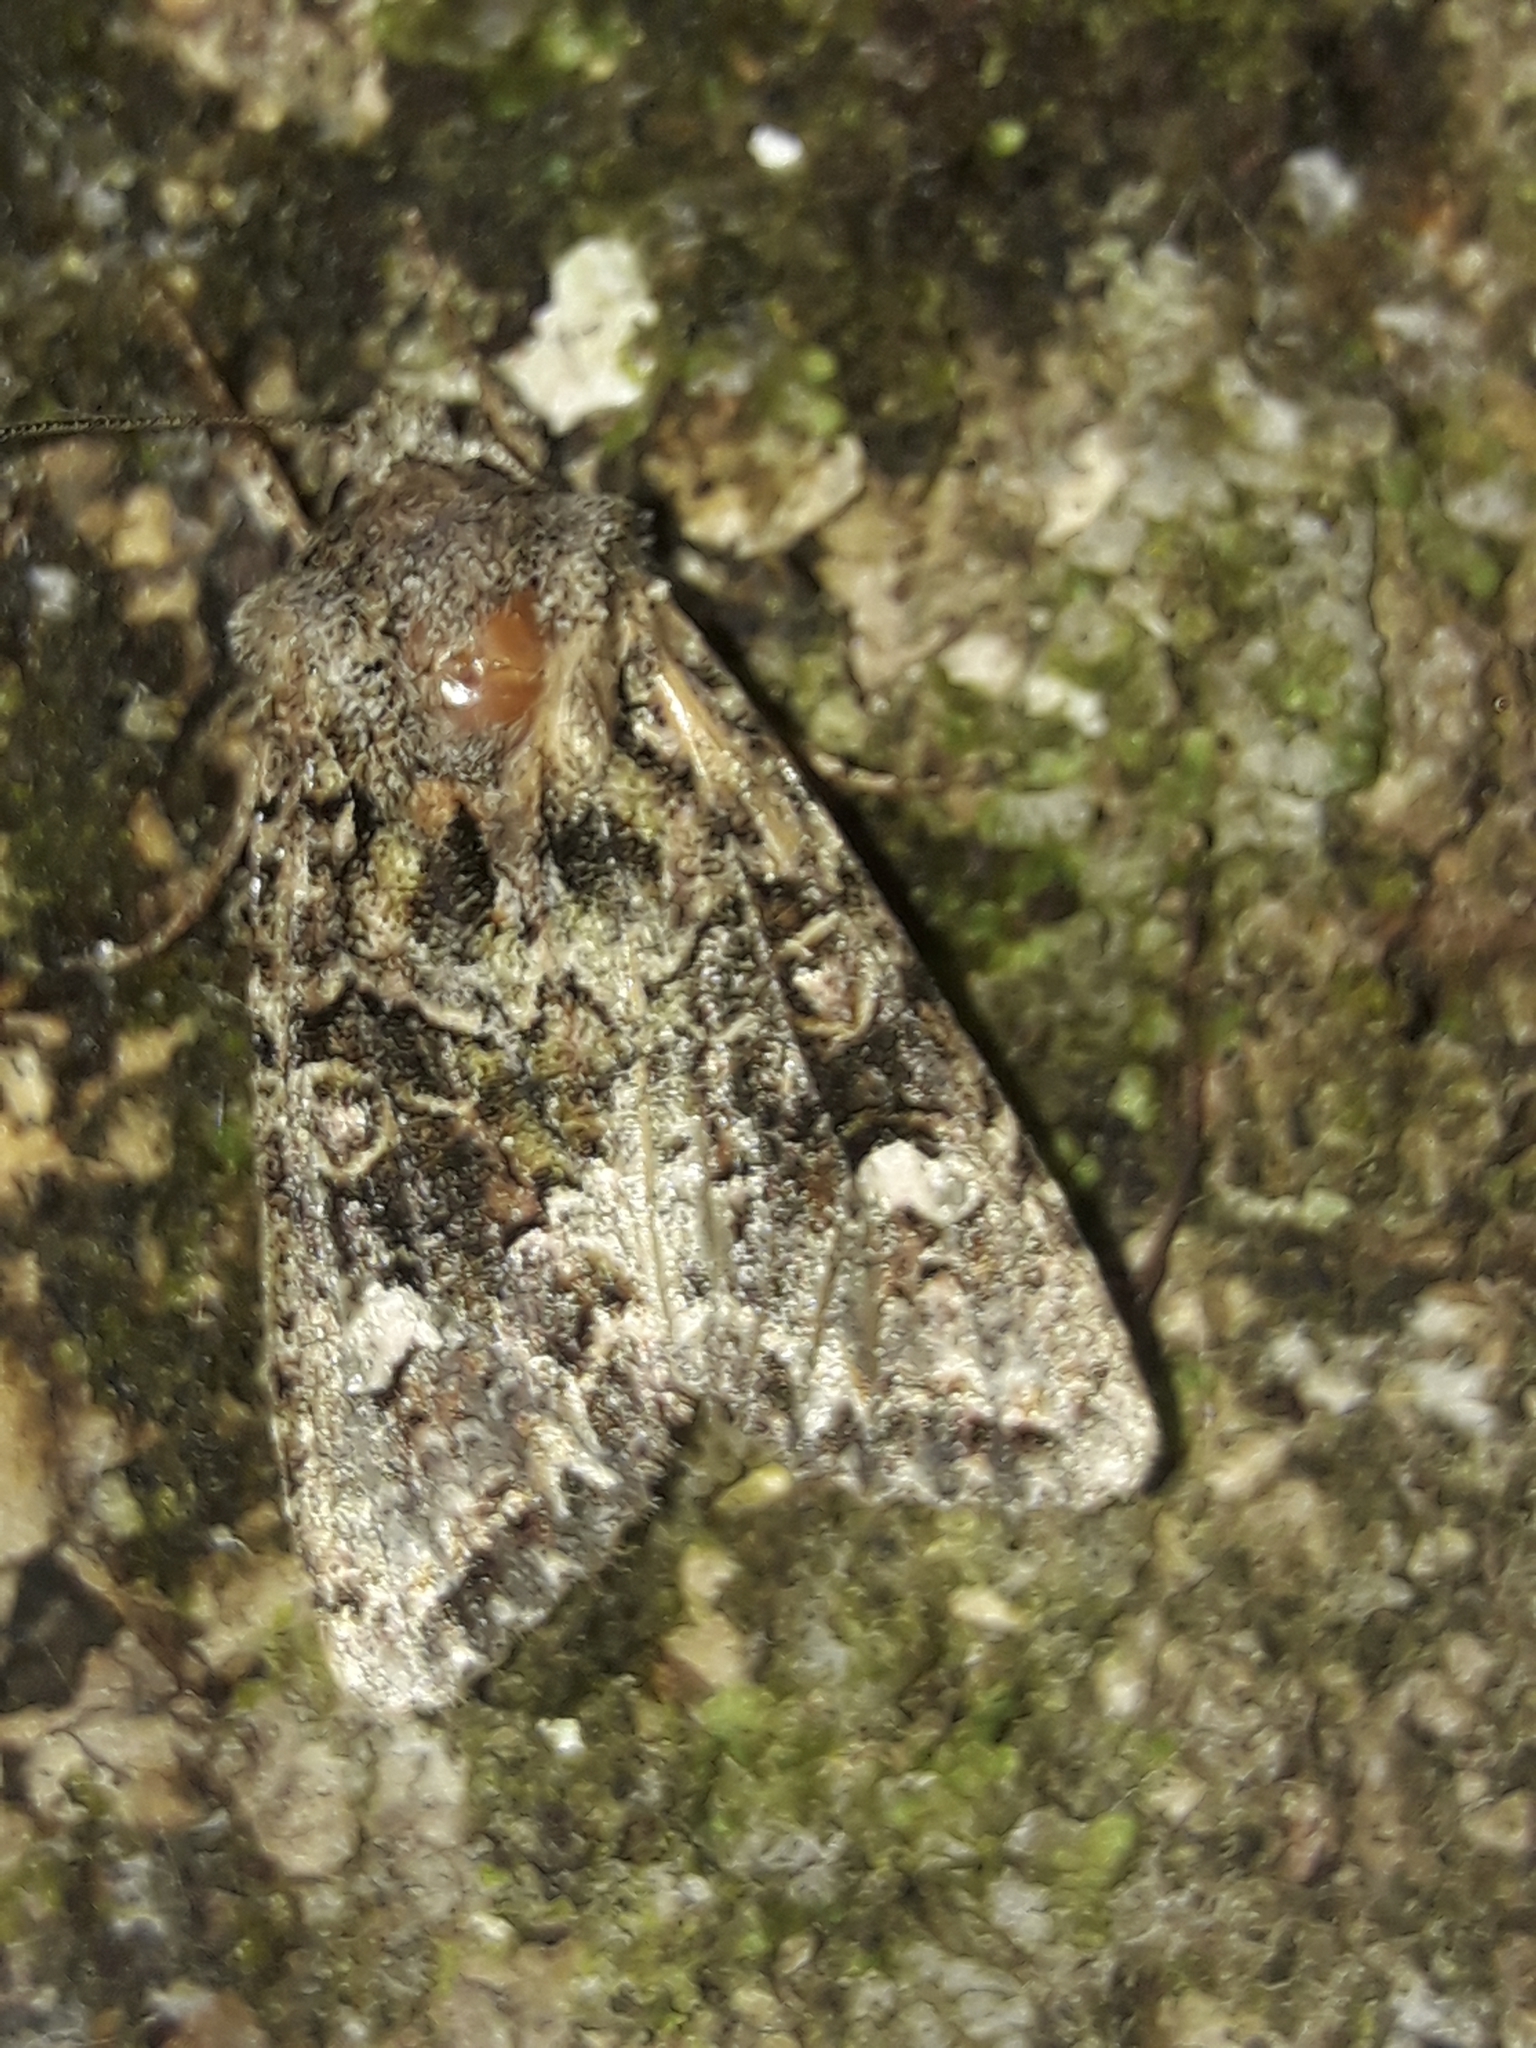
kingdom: Animalia
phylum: Arthropoda
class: Insecta
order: Lepidoptera
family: Noctuidae
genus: Ichneutica
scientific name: Ichneutica
